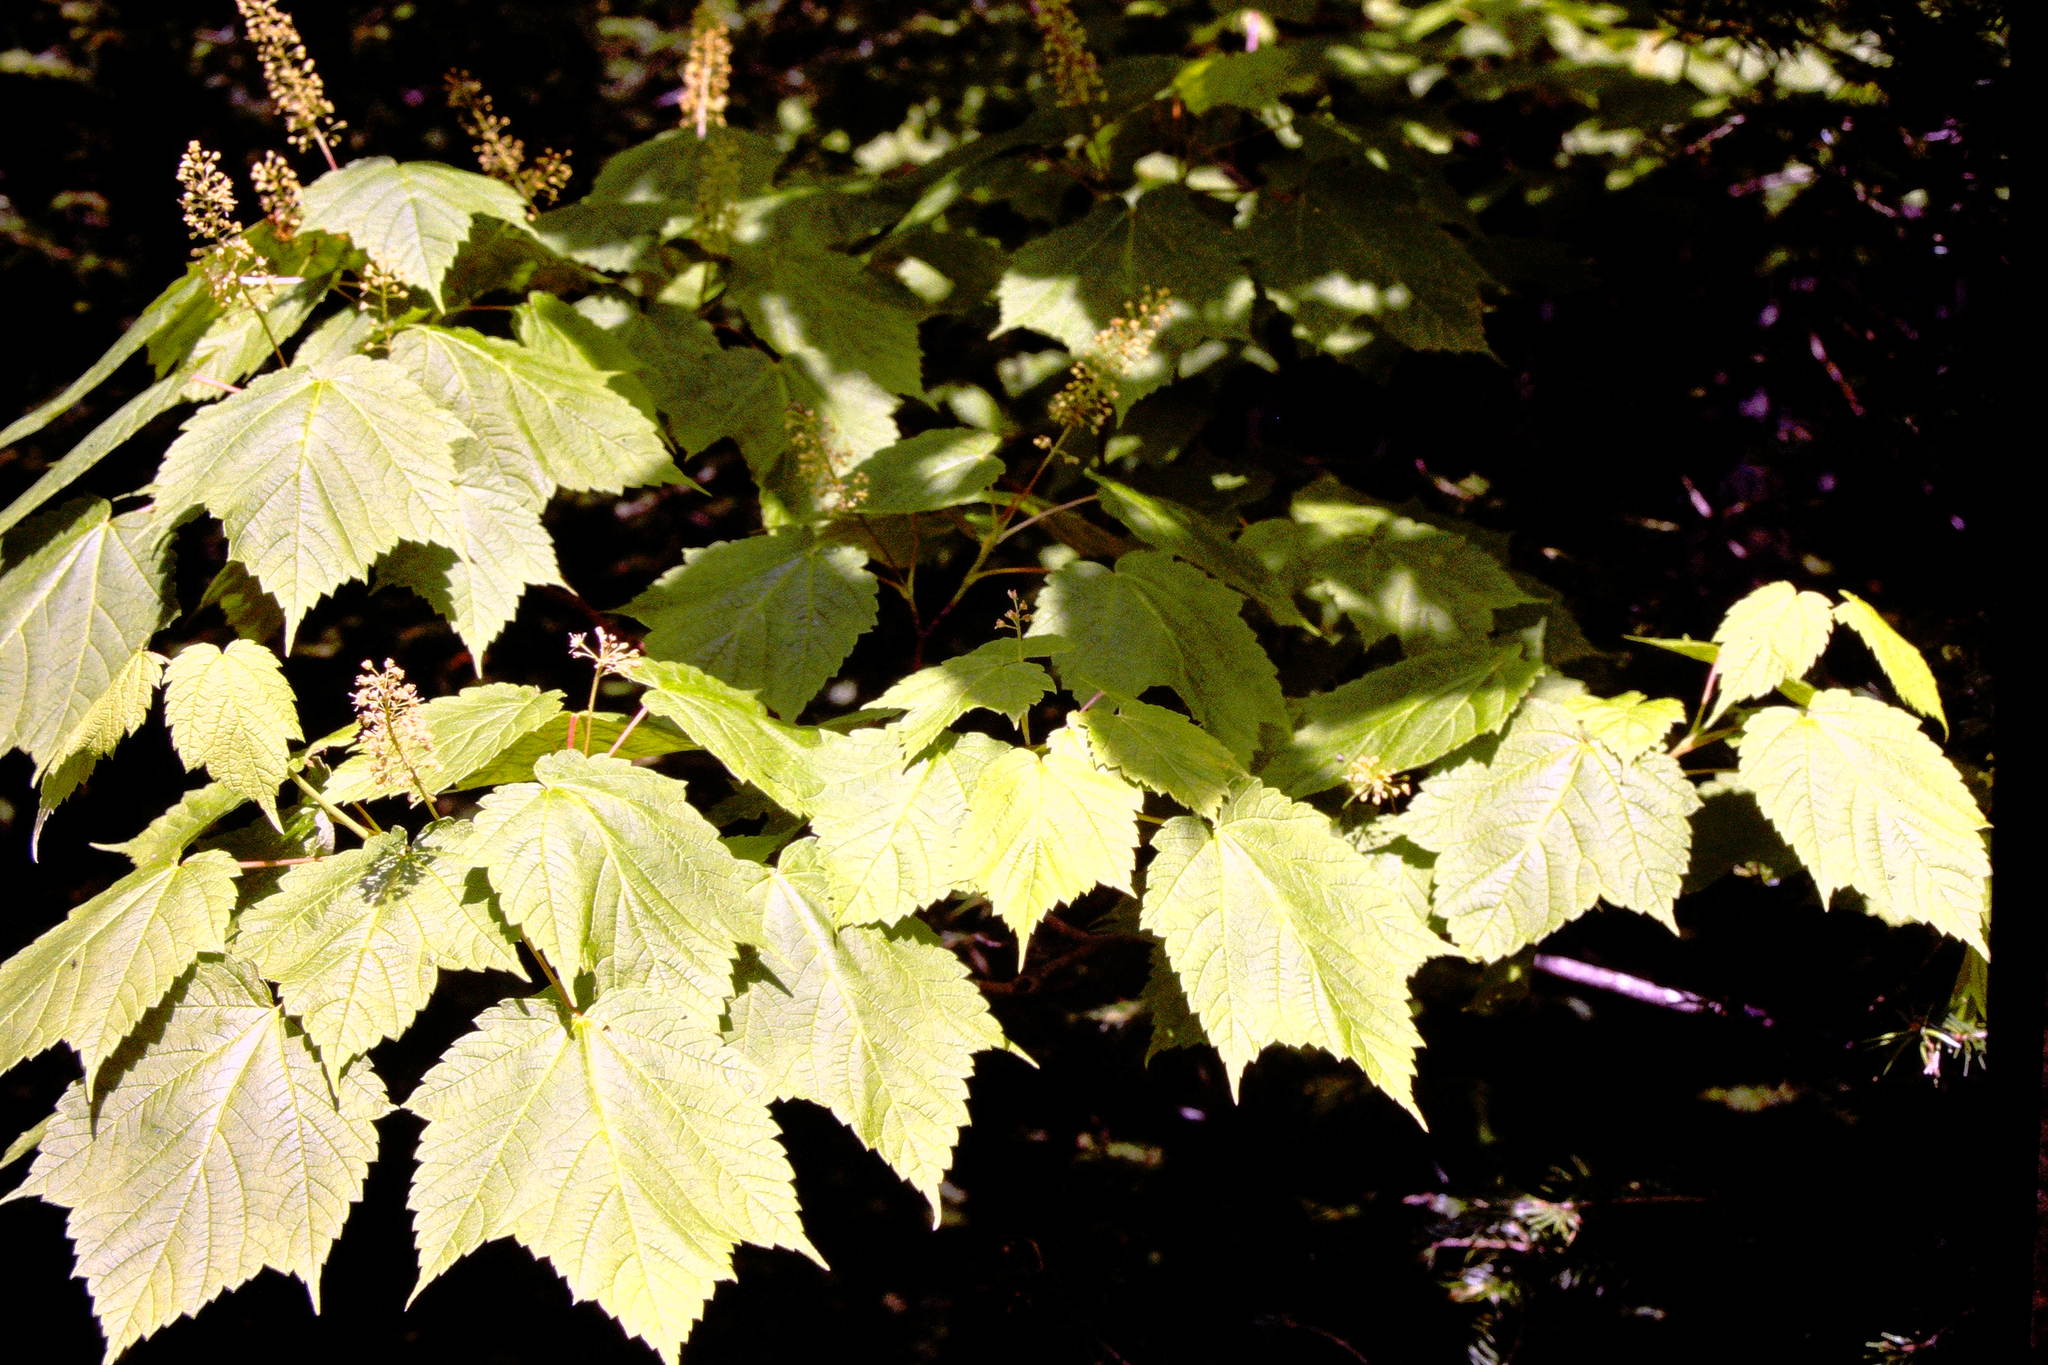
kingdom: Plantae
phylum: Tracheophyta
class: Magnoliopsida
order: Sapindales
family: Sapindaceae
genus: Acer
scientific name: Acer spicatum
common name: Mountain maple
